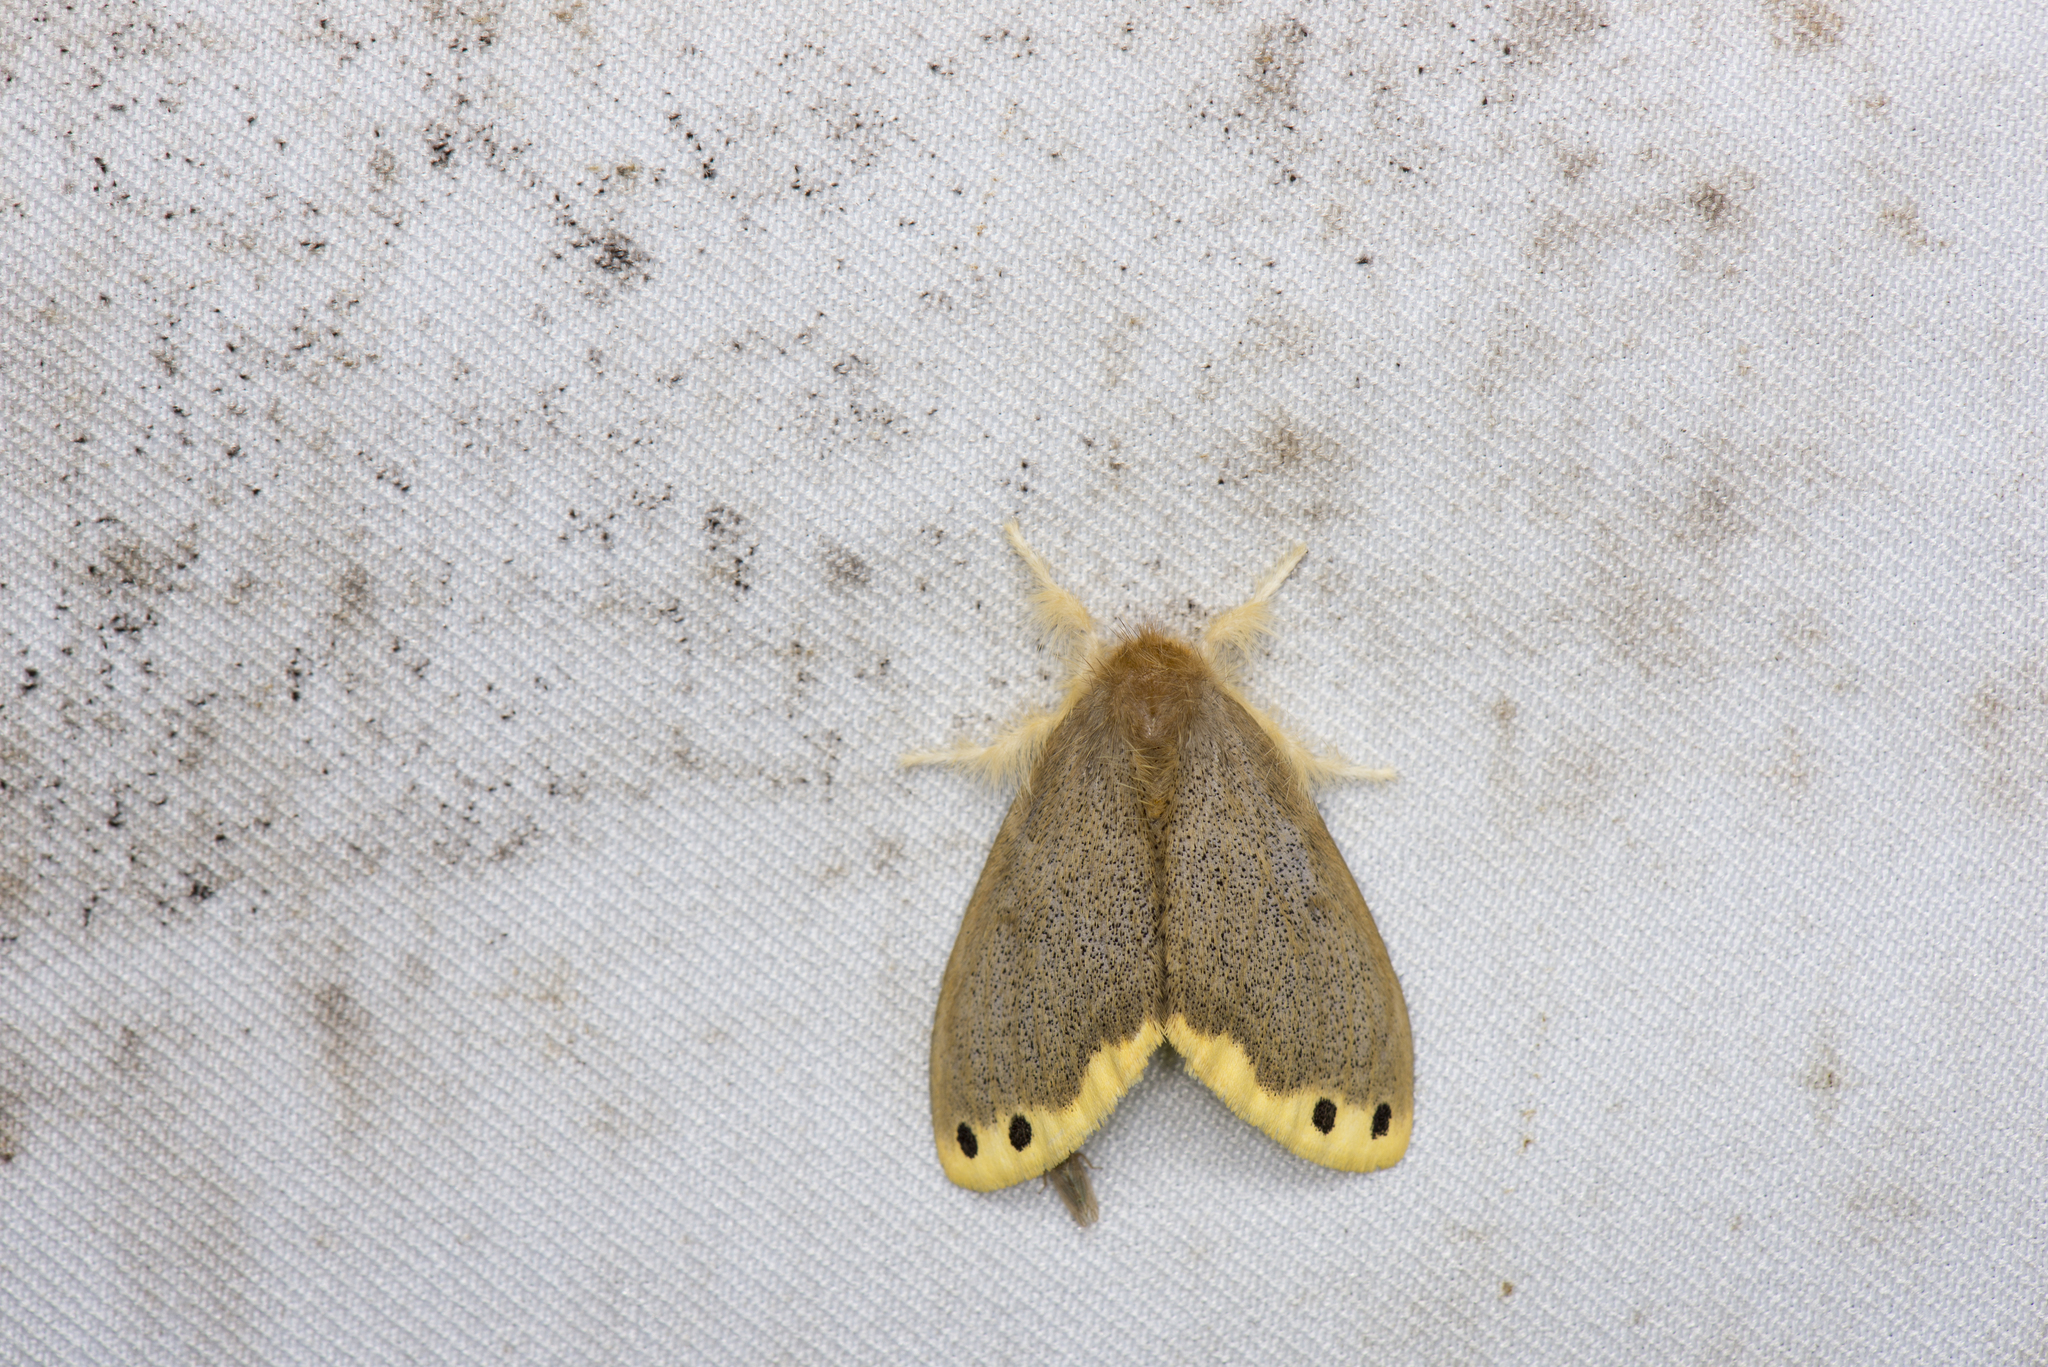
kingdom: Animalia
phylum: Arthropoda
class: Insecta
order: Lepidoptera
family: Erebidae
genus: Euproctis
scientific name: Euproctis magna
